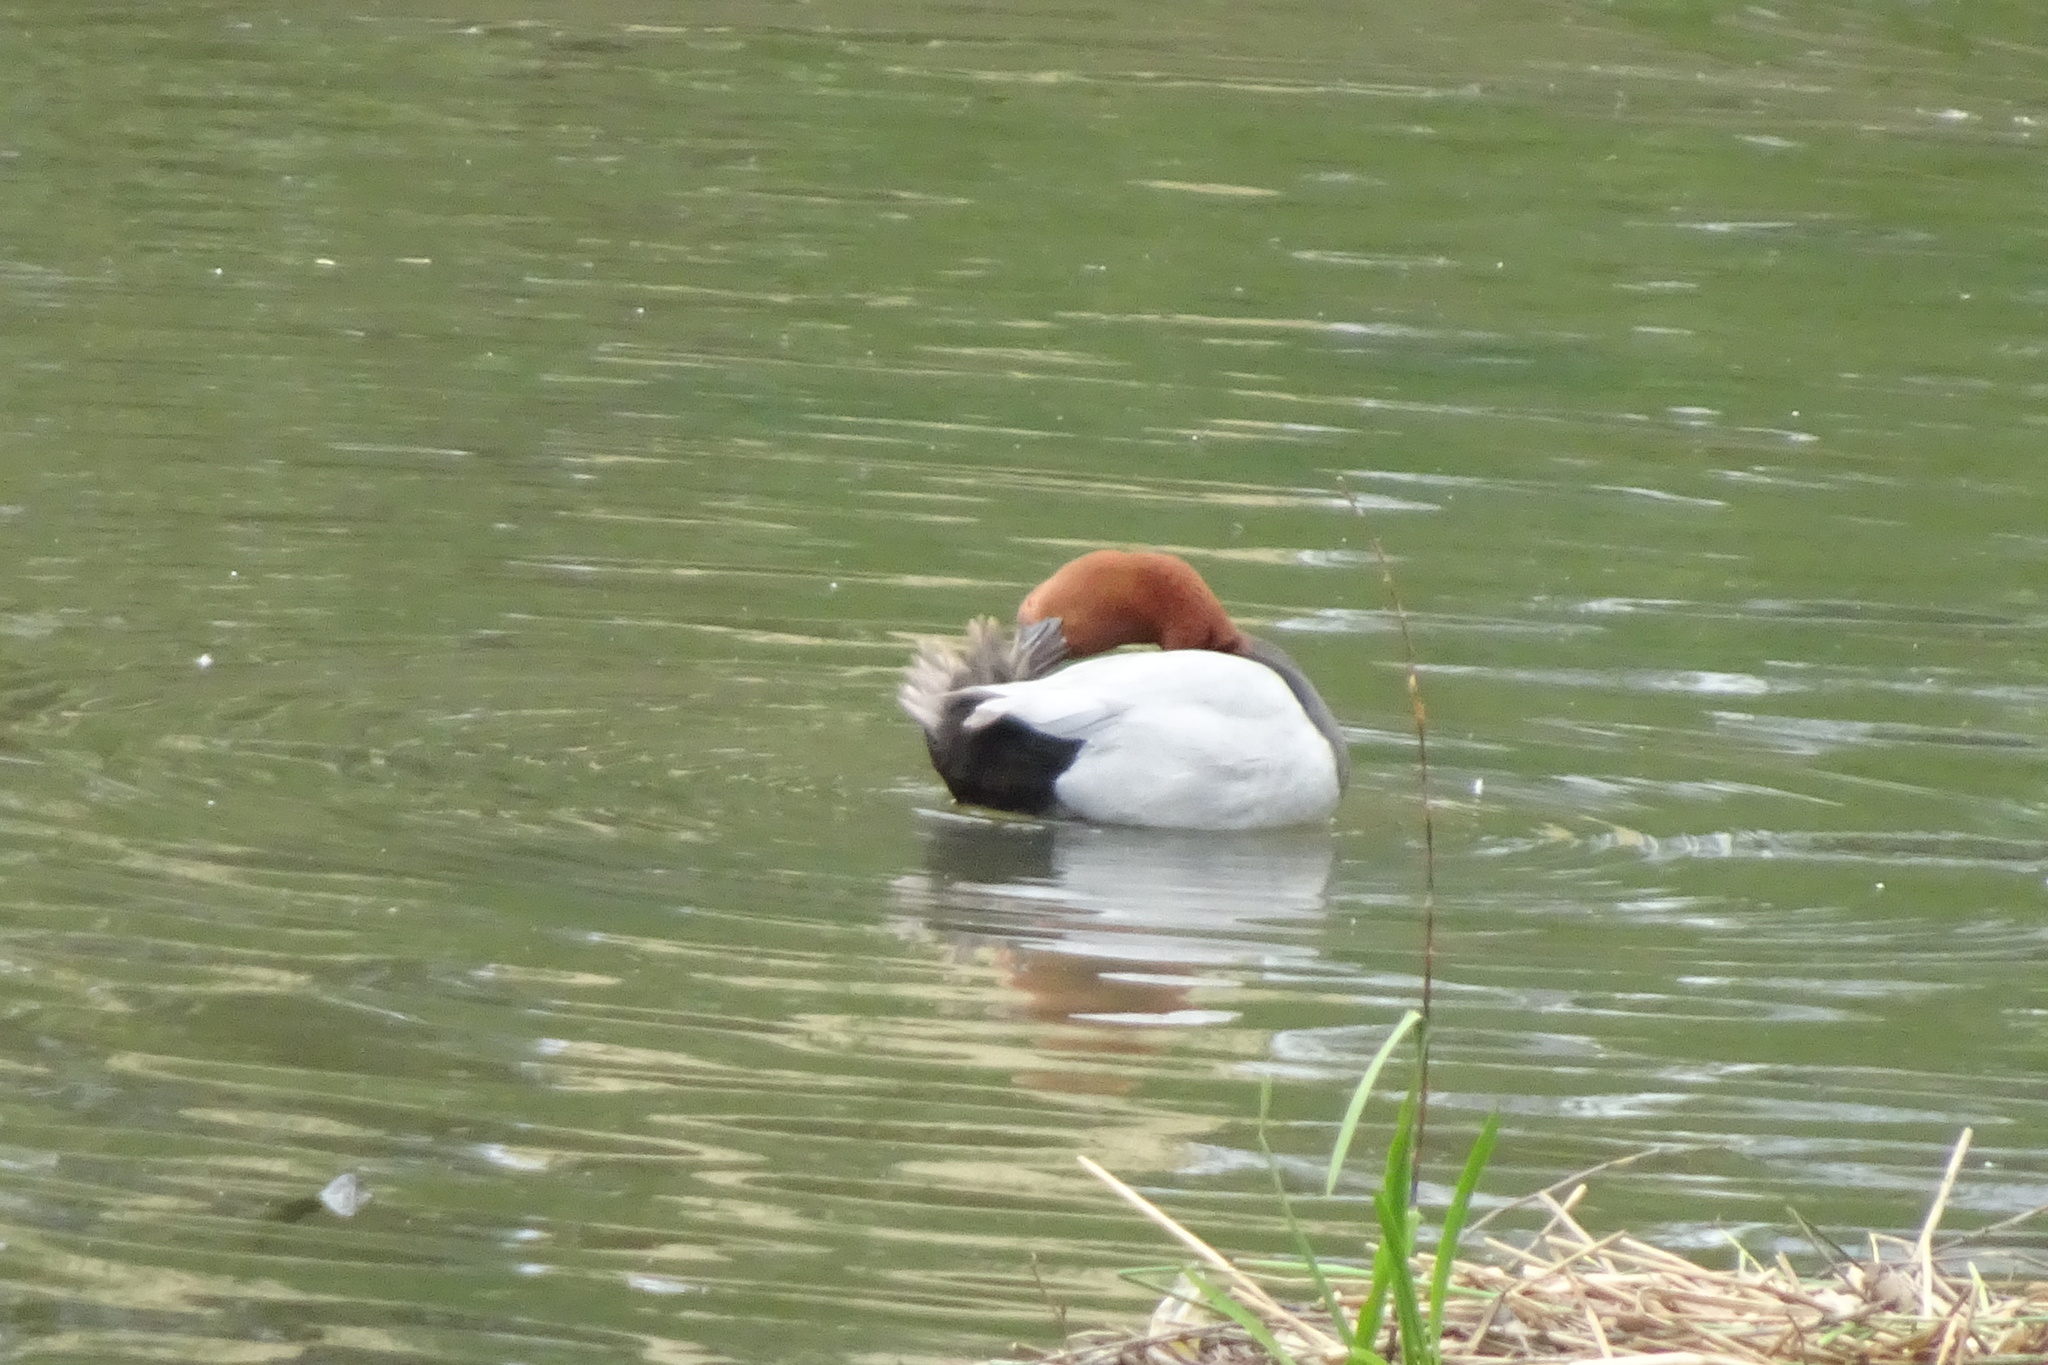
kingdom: Animalia
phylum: Chordata
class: Aves
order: Anseriformes
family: Anatidae
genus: Aythya
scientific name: Aythya ferina
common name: Common pochard
